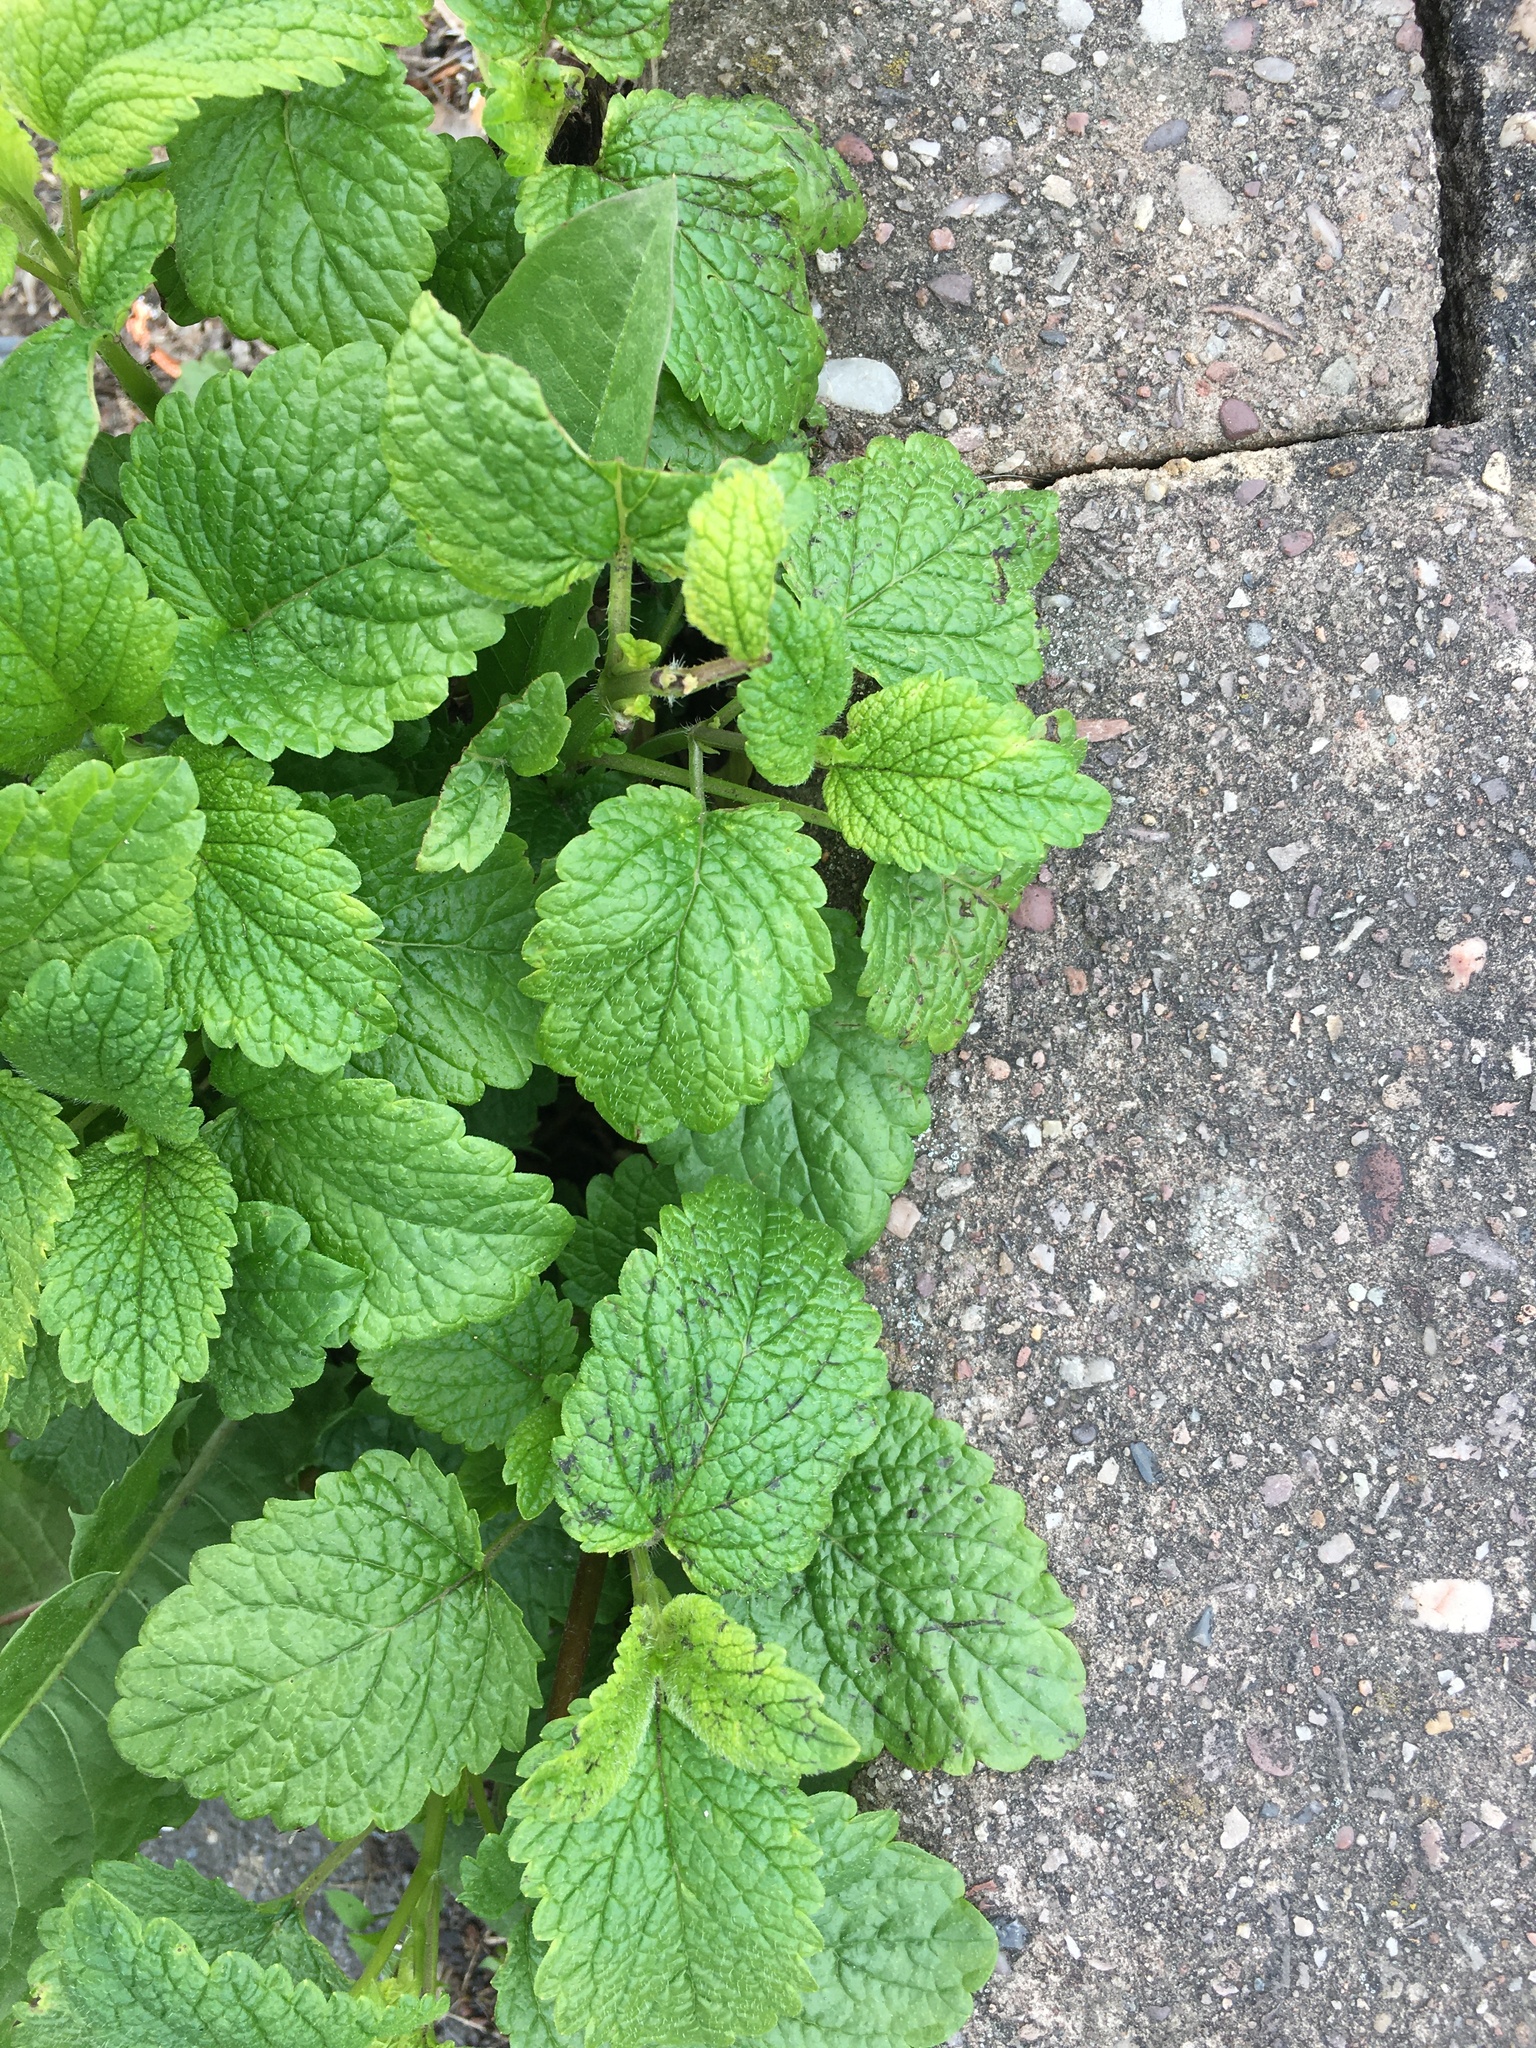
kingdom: Plantae
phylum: Tracheophyta
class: Magnoliopsida
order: Lamiales
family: Lamiaceae
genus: Melissa
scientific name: Melissa officinalis
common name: Balm
